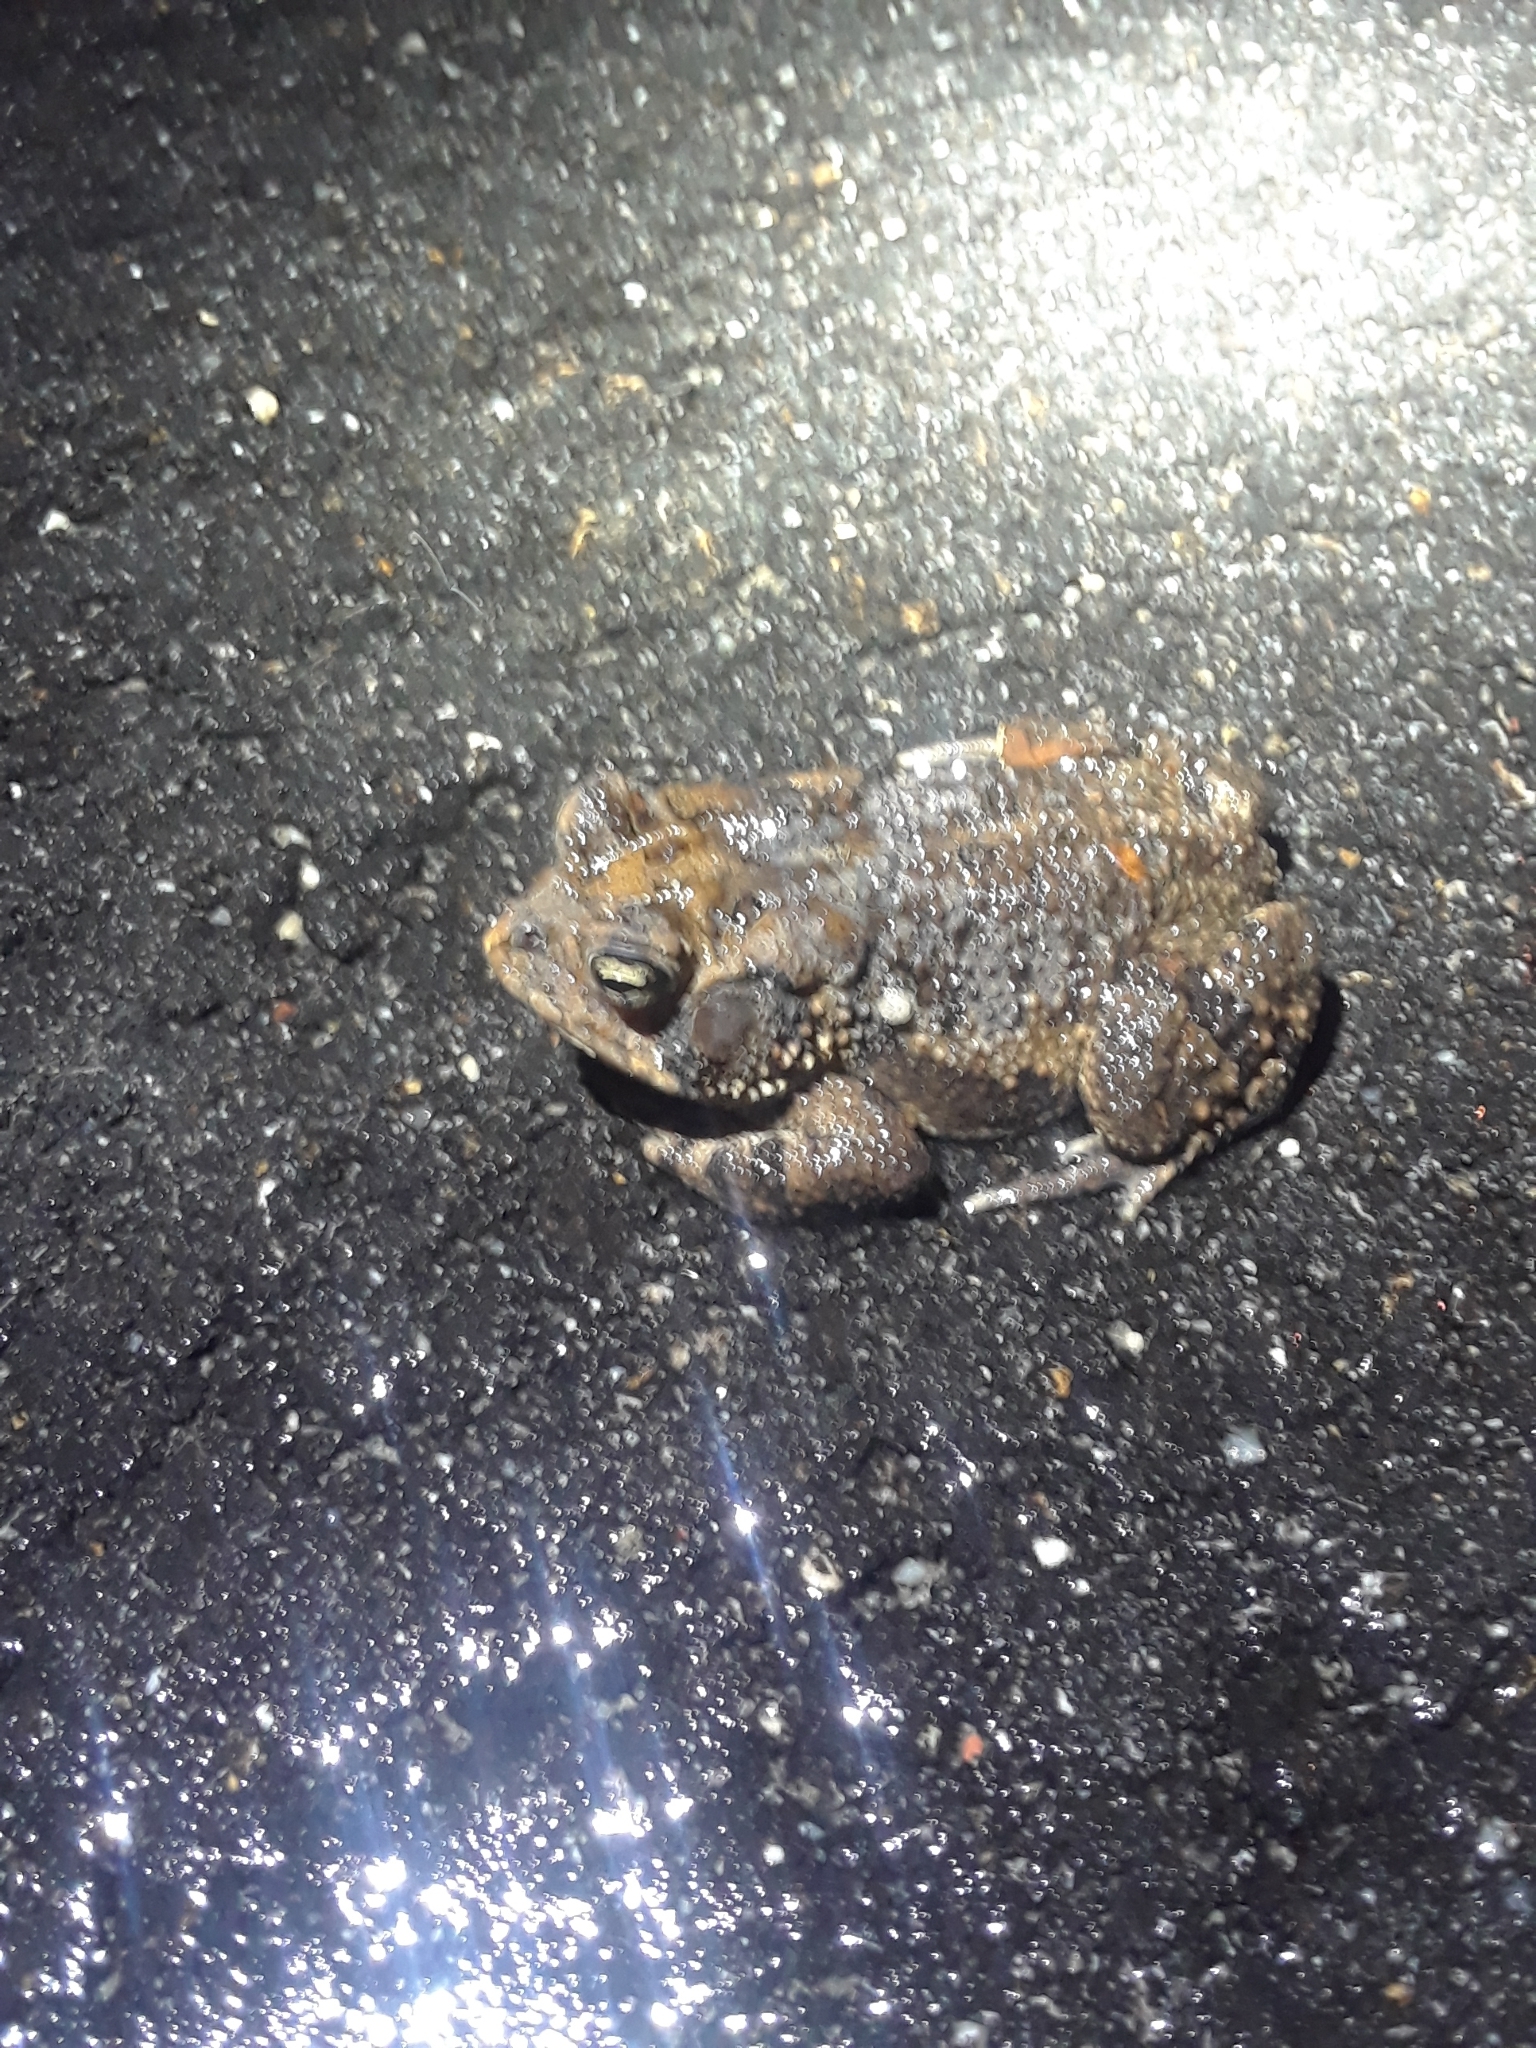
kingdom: Animalia
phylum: Chordata
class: Amphibia
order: Anura
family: Bufonidae
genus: Anaxyrus
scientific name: Anaxyrus terrestris
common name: Southern toad
